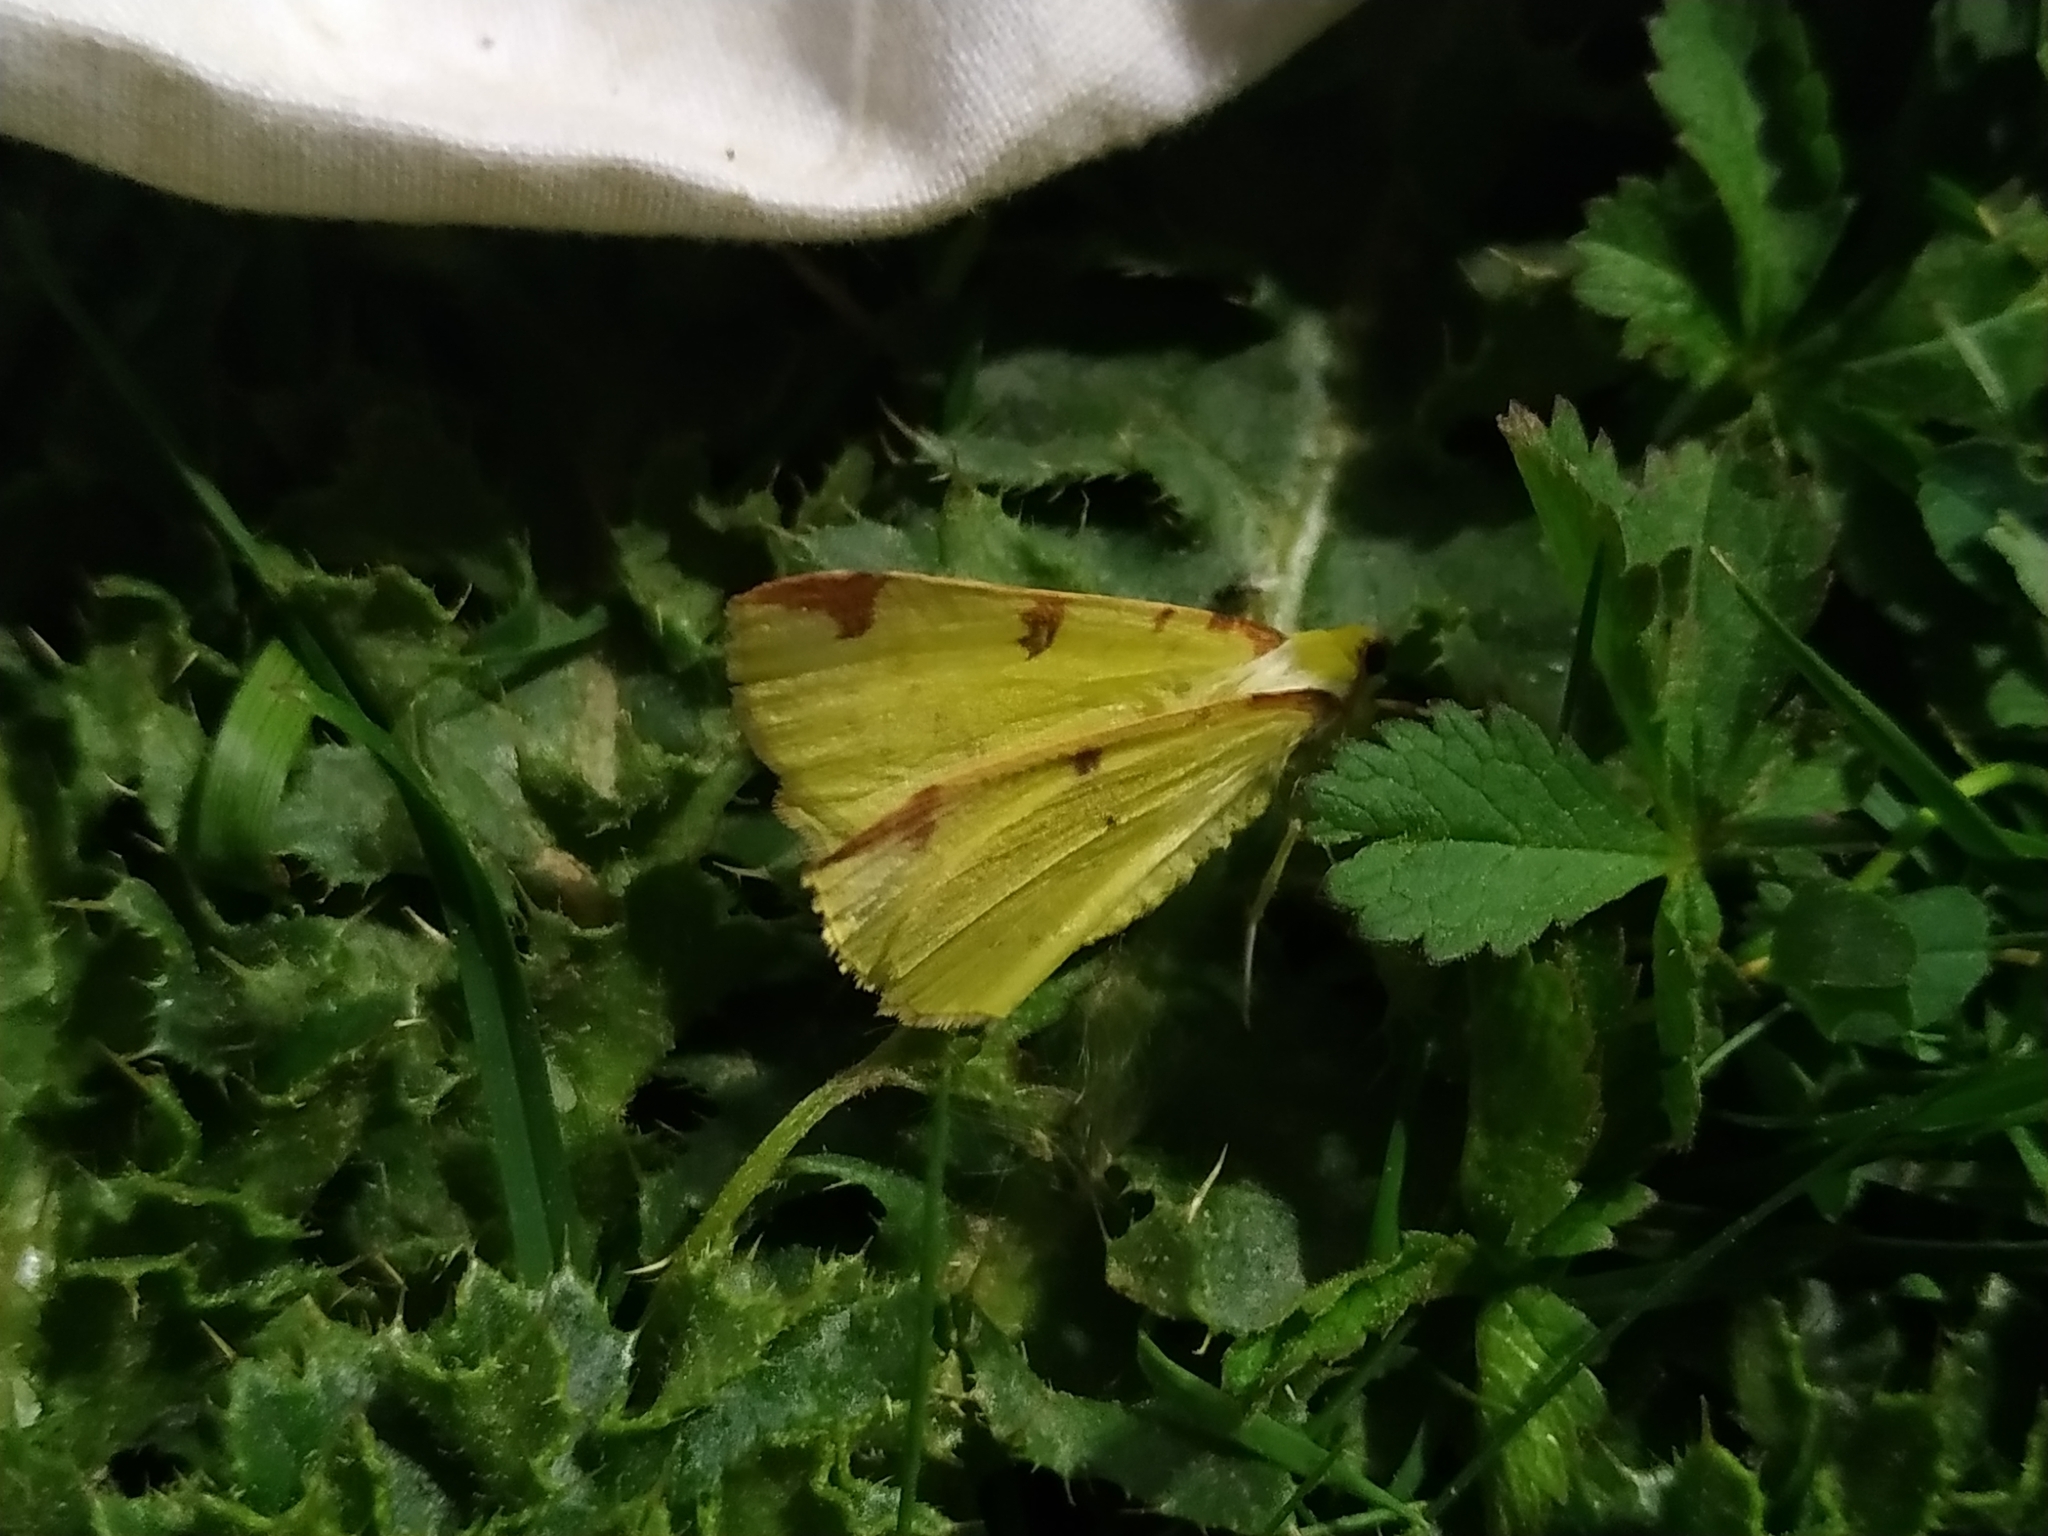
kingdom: Animalia
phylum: Arthropoda
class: Insecta
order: Lepidoptera
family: Geometridae
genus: Opisthograptis
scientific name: Opisthograptis luteolata
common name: Brimstone moth
